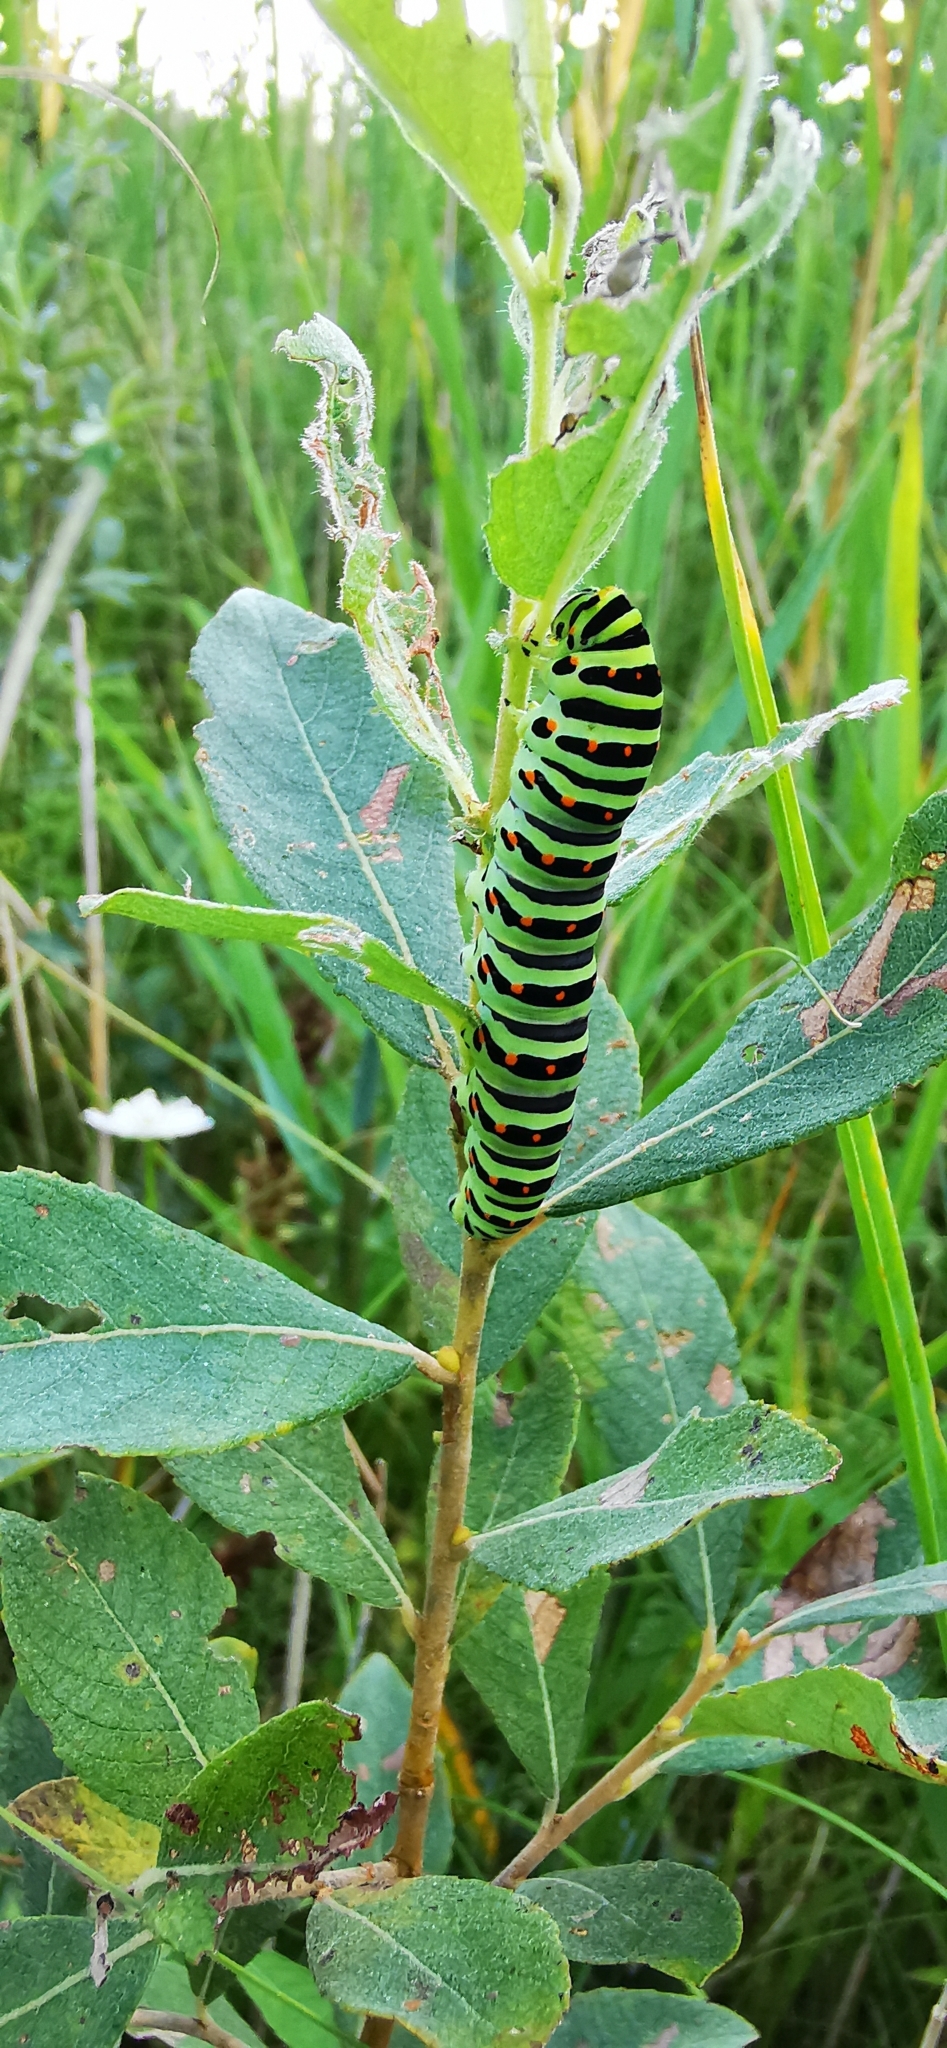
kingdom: Animalia
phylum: Arthropoda
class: Insecta
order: Lepidoptera
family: Papilionidae
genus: Papilio
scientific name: Papilio machaon
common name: Swallowtail
